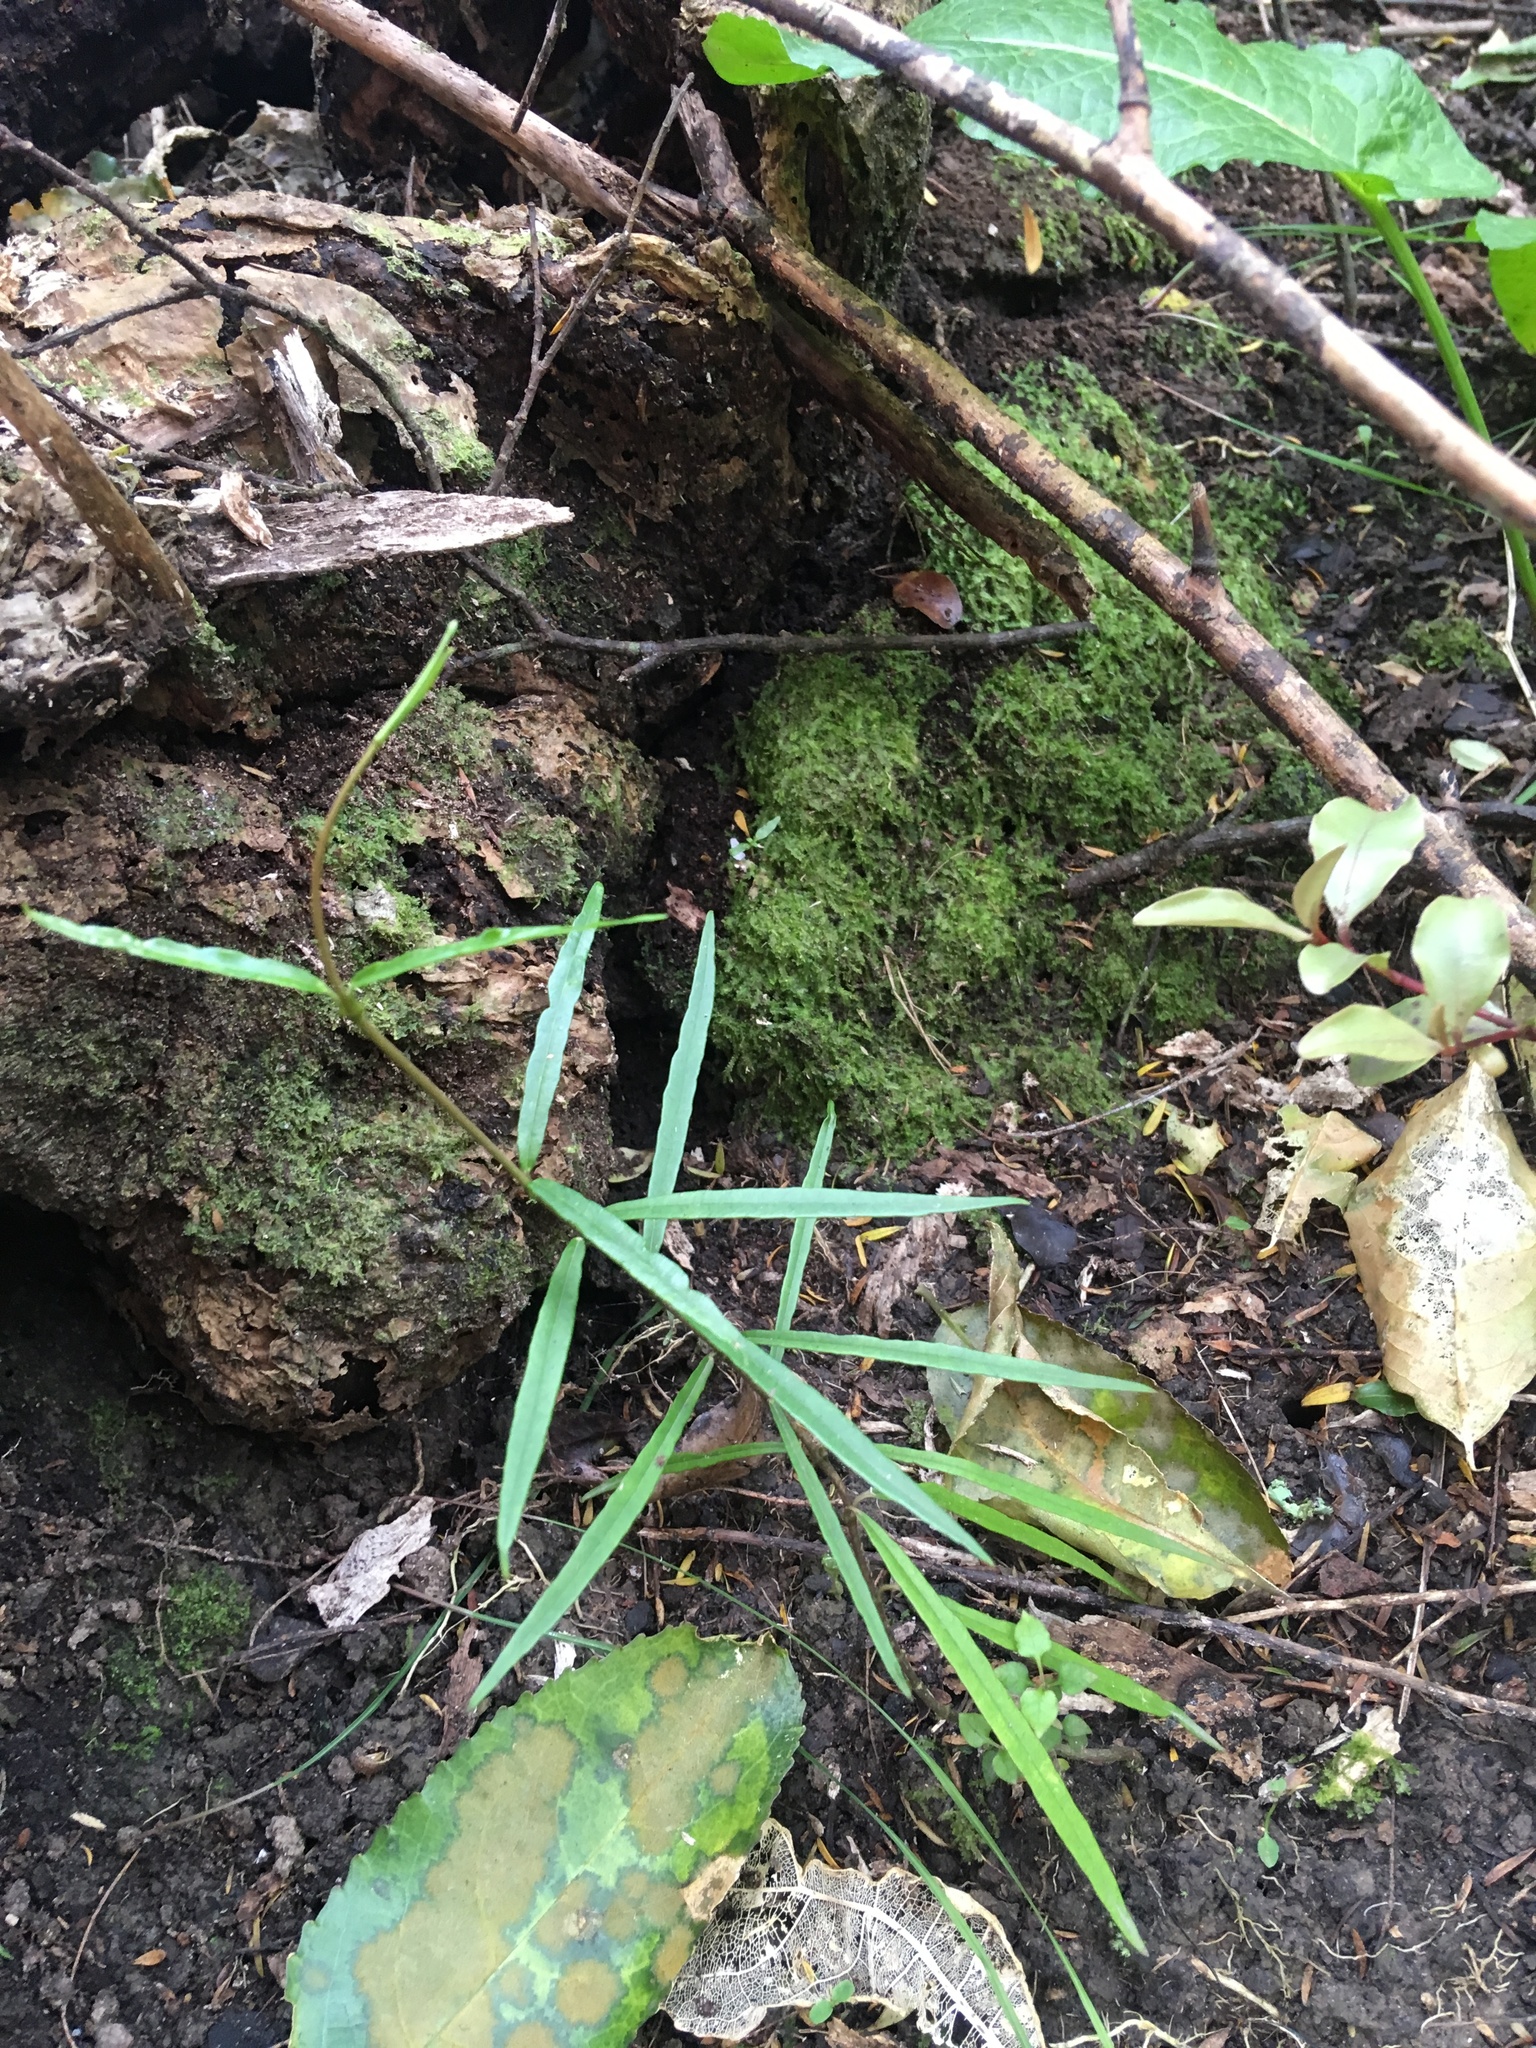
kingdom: Plantae
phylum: Tracheophyta
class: Magnoliopsida
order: Gentianales
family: Apocynaceae
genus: Parsonsia
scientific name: Parsonsia heterophylla
